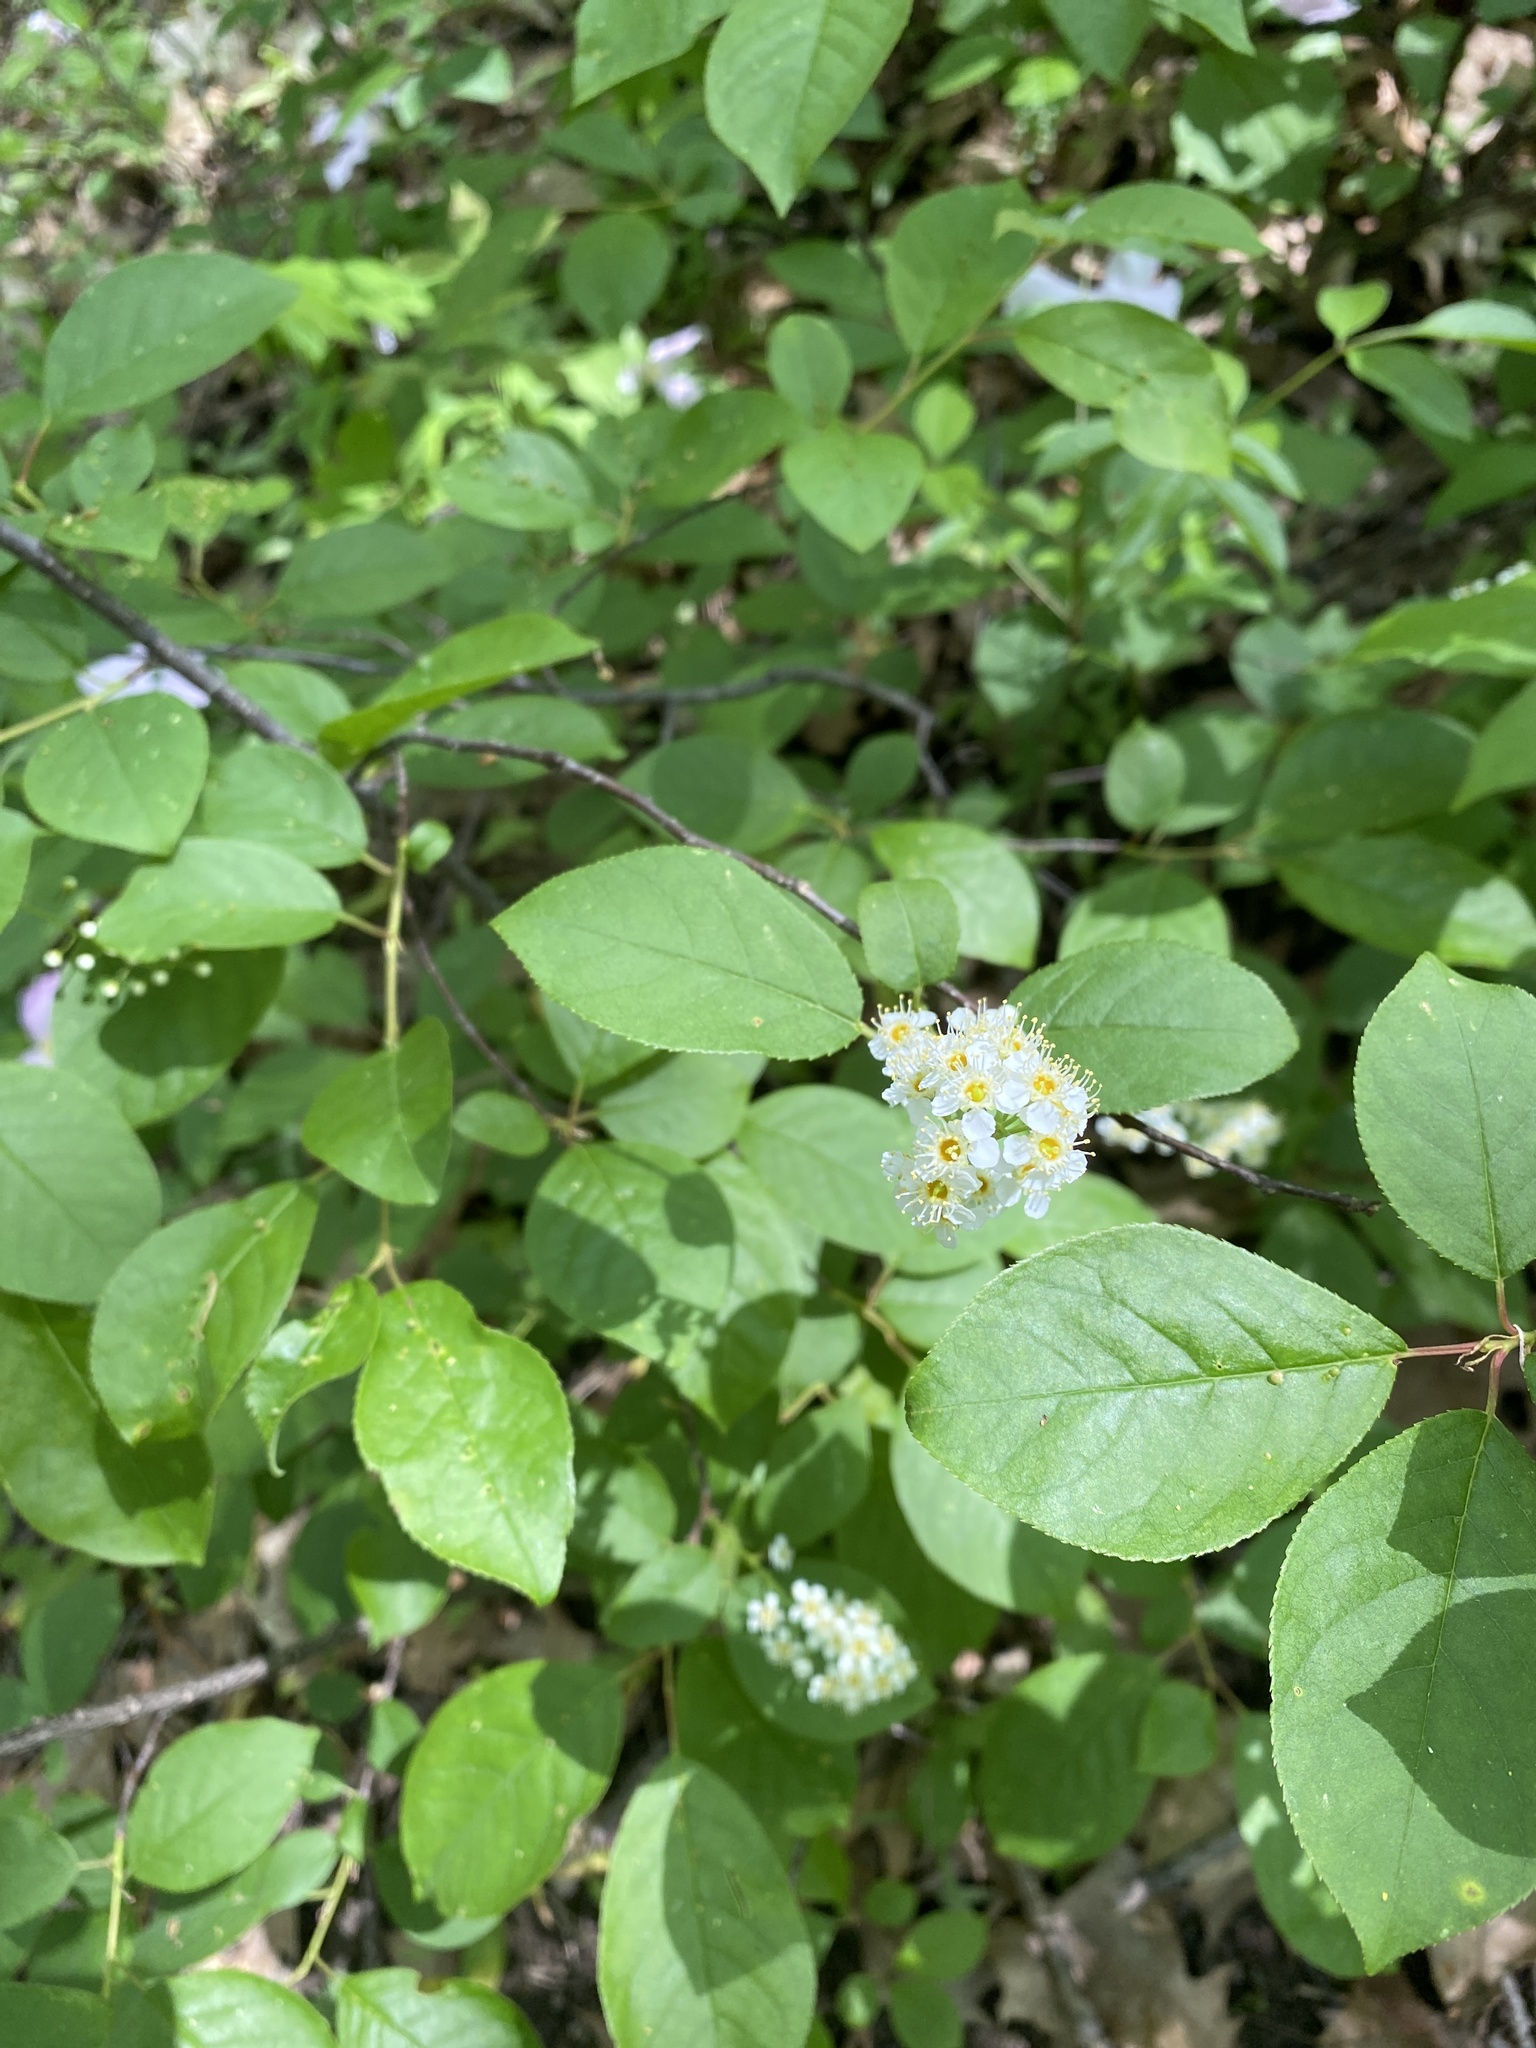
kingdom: Plantae
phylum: Tracheophyta
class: Magnoliopsida
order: Rosales
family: Rosaceae
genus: Prunus
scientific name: Prunus virginiana
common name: Chokecherry
